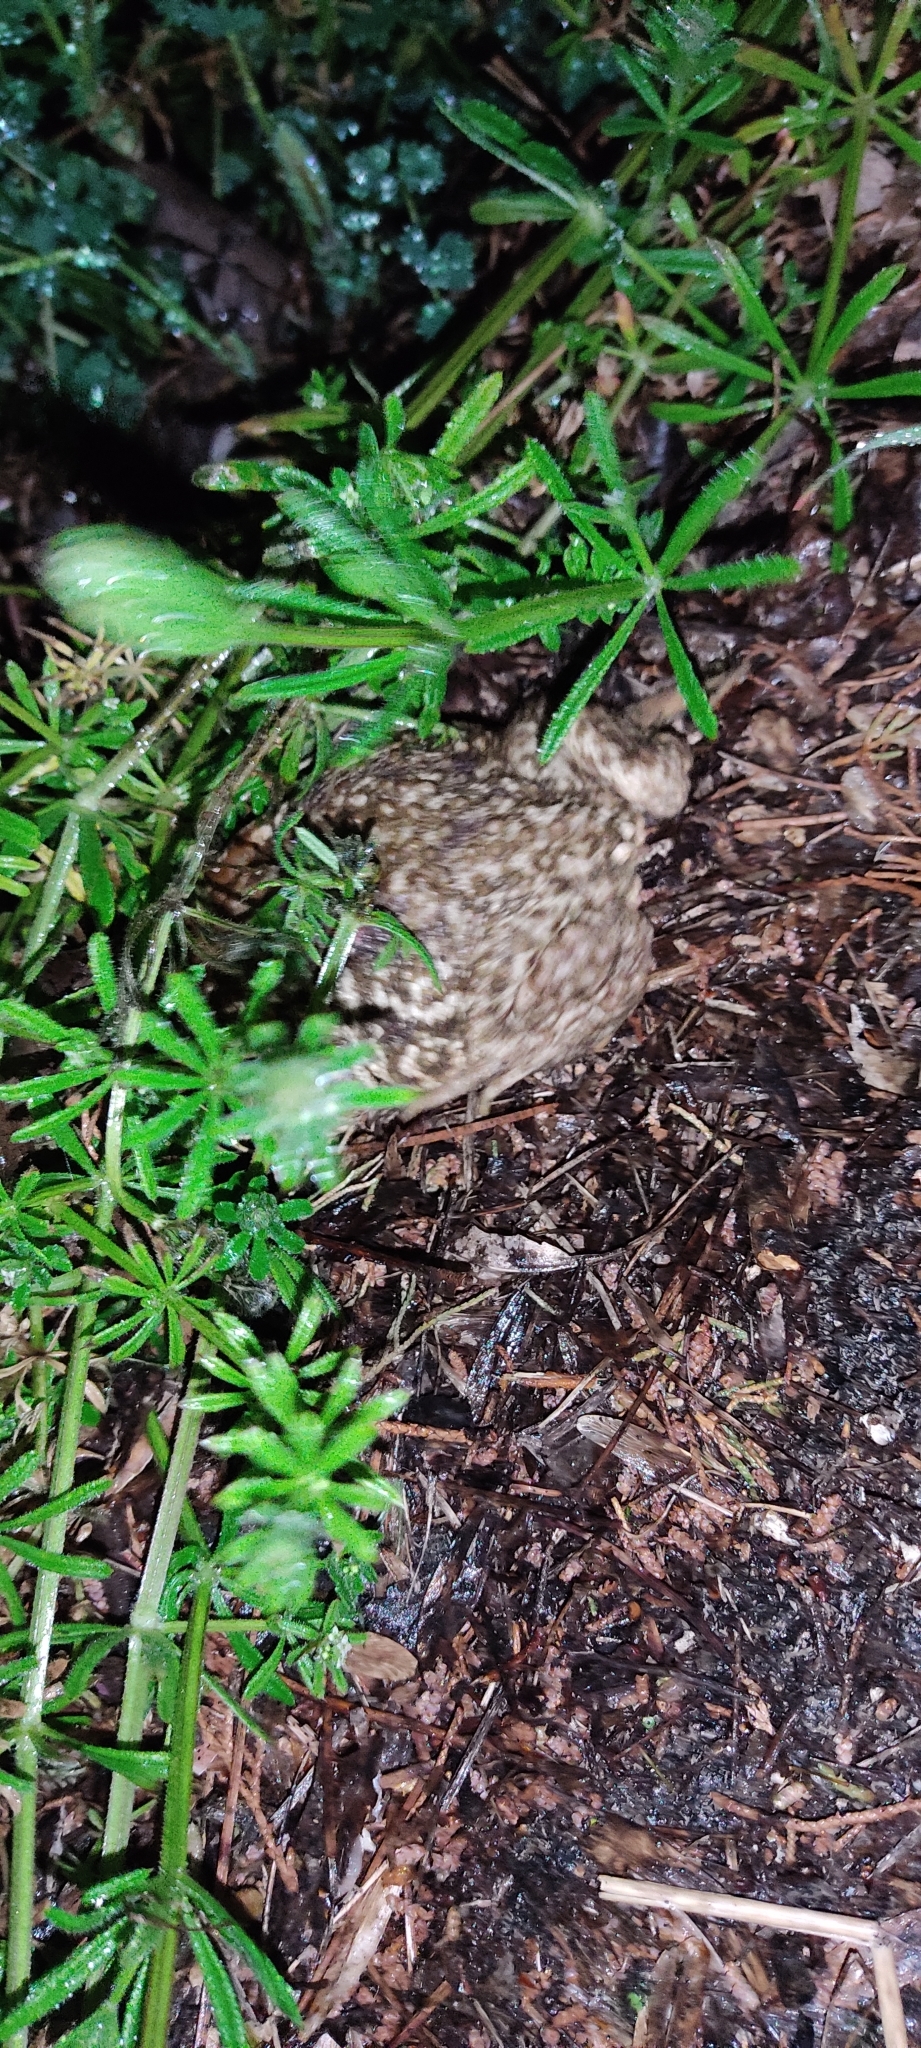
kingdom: Animalia
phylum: Chordata
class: Amphibia
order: Anura
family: Bufonidae
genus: Bufo
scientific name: Bufo spinosus
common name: Western common toad
